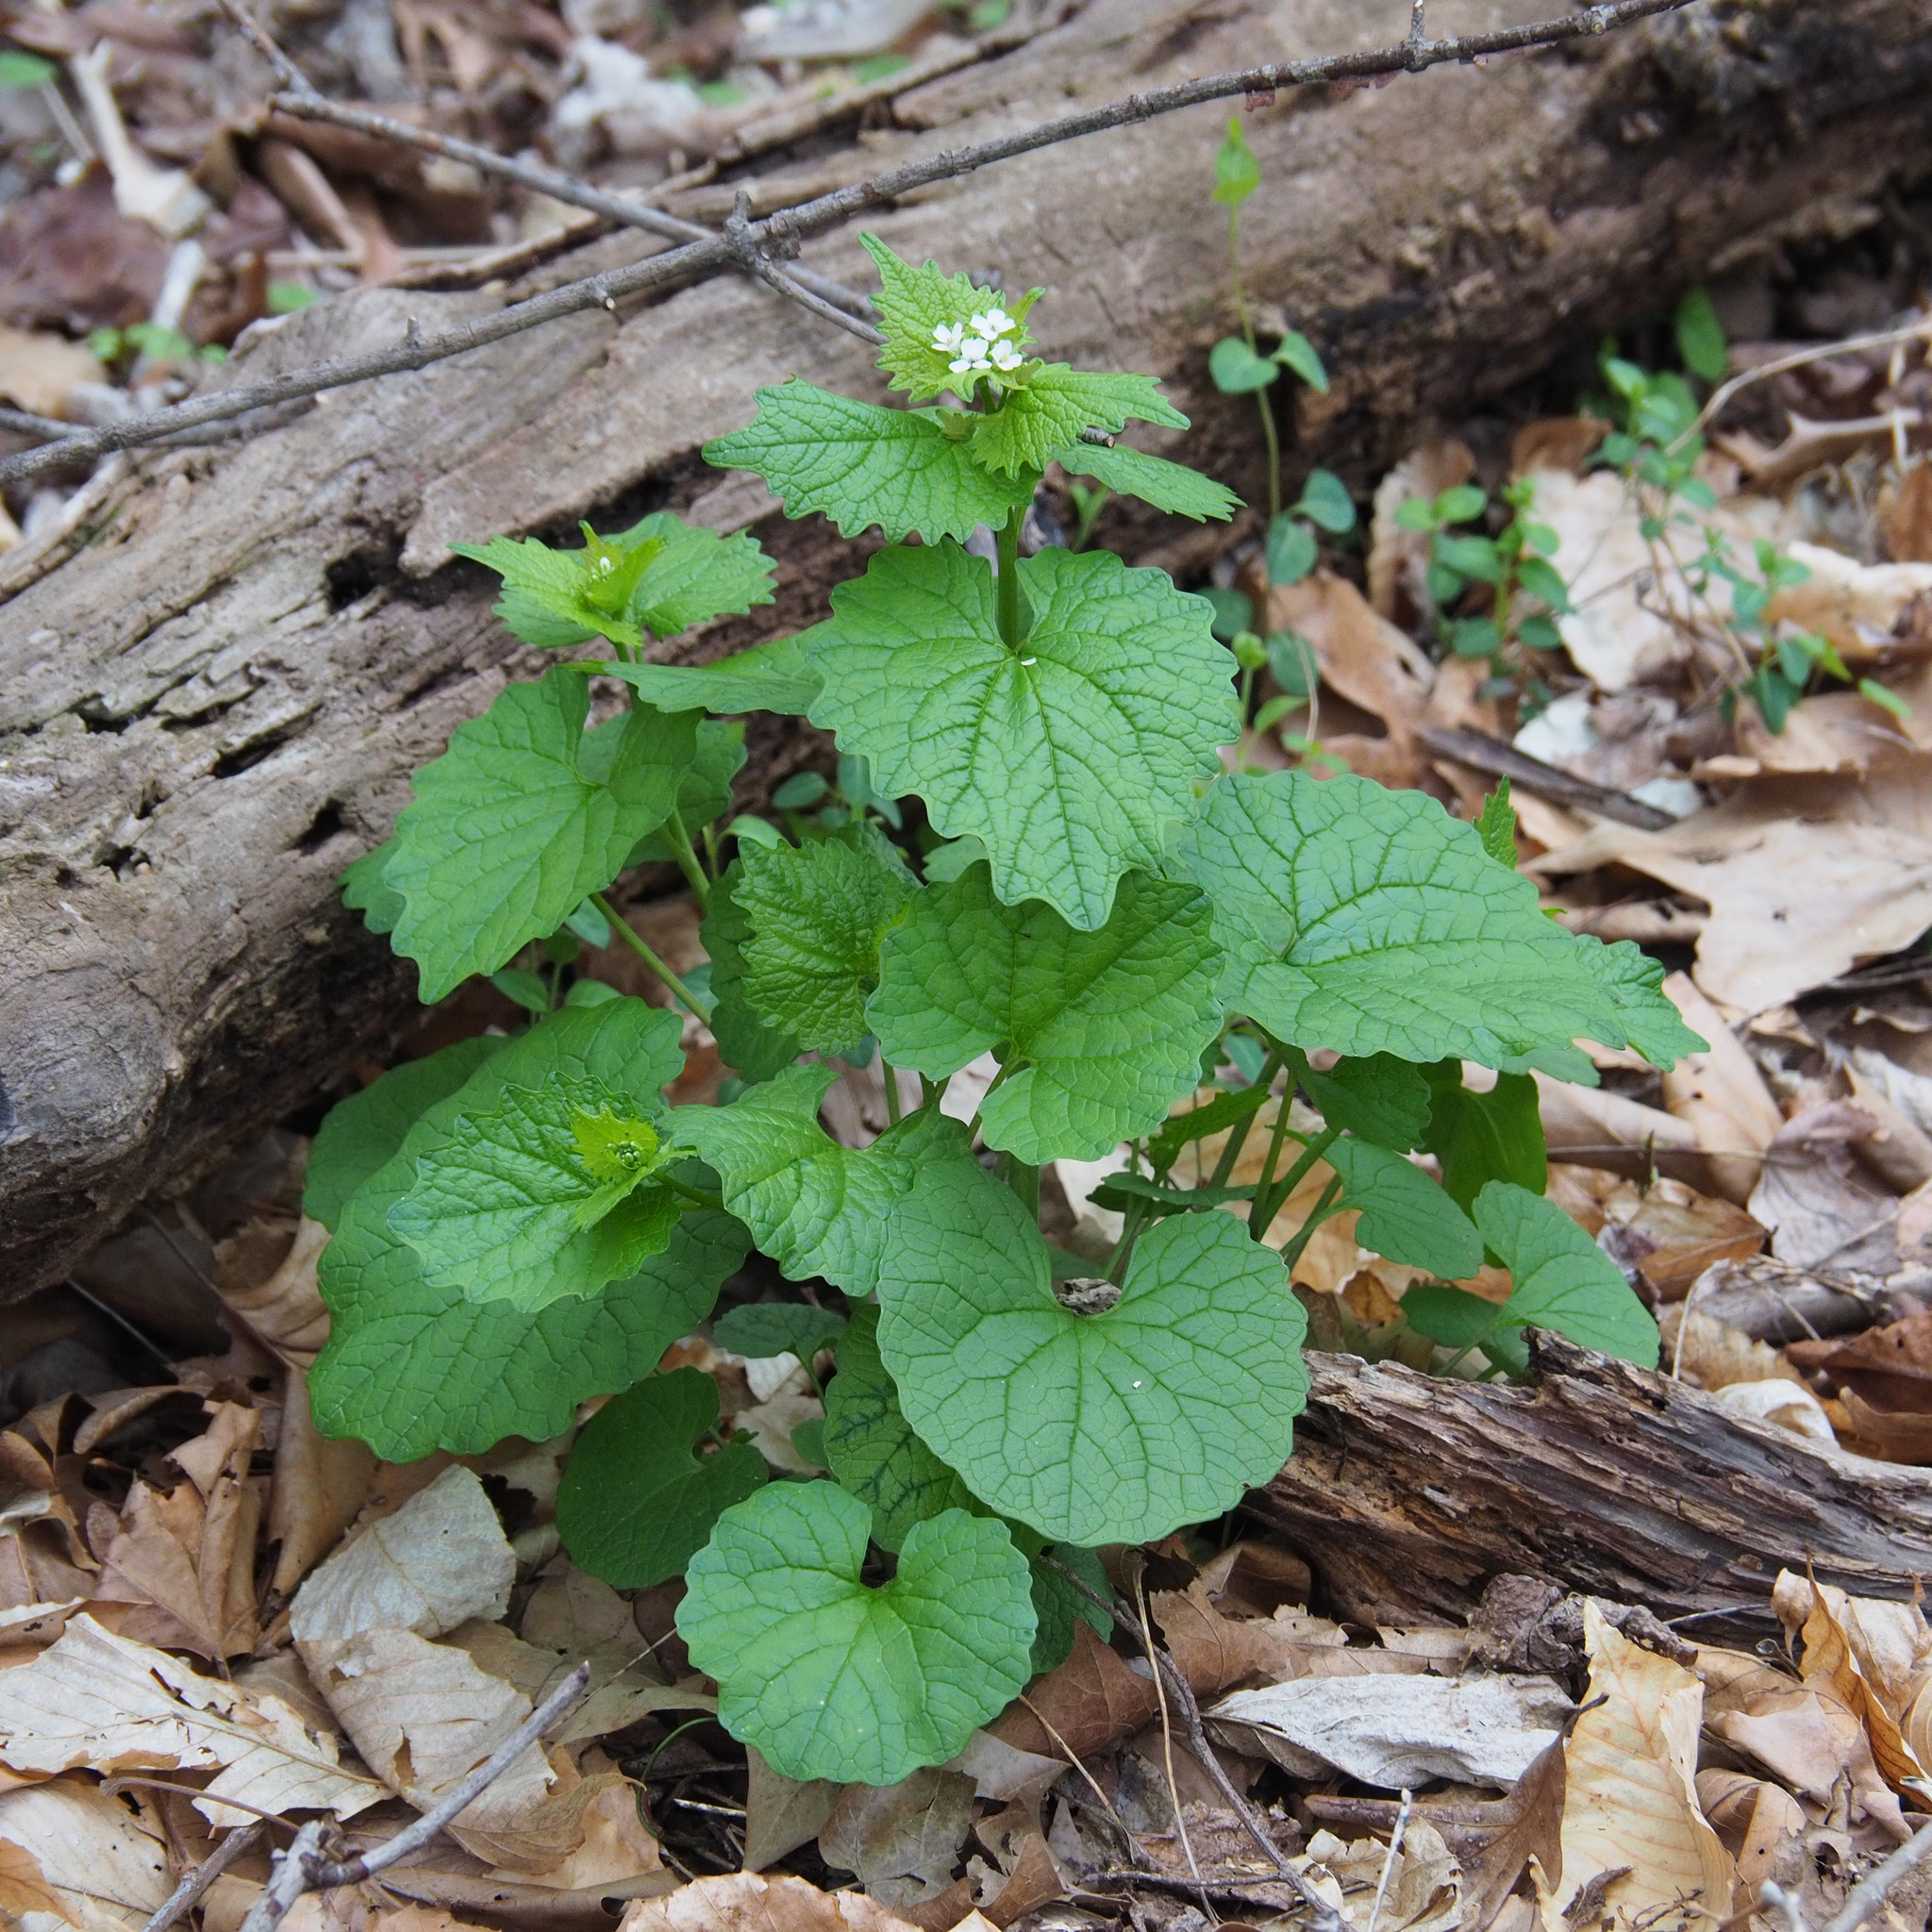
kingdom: Plantae
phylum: Tracheophyta
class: Magnoliopsida
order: Brassicales
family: Brassicaceae
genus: Alliaria
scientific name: Alliaria petiolata
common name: Garlic mustard
